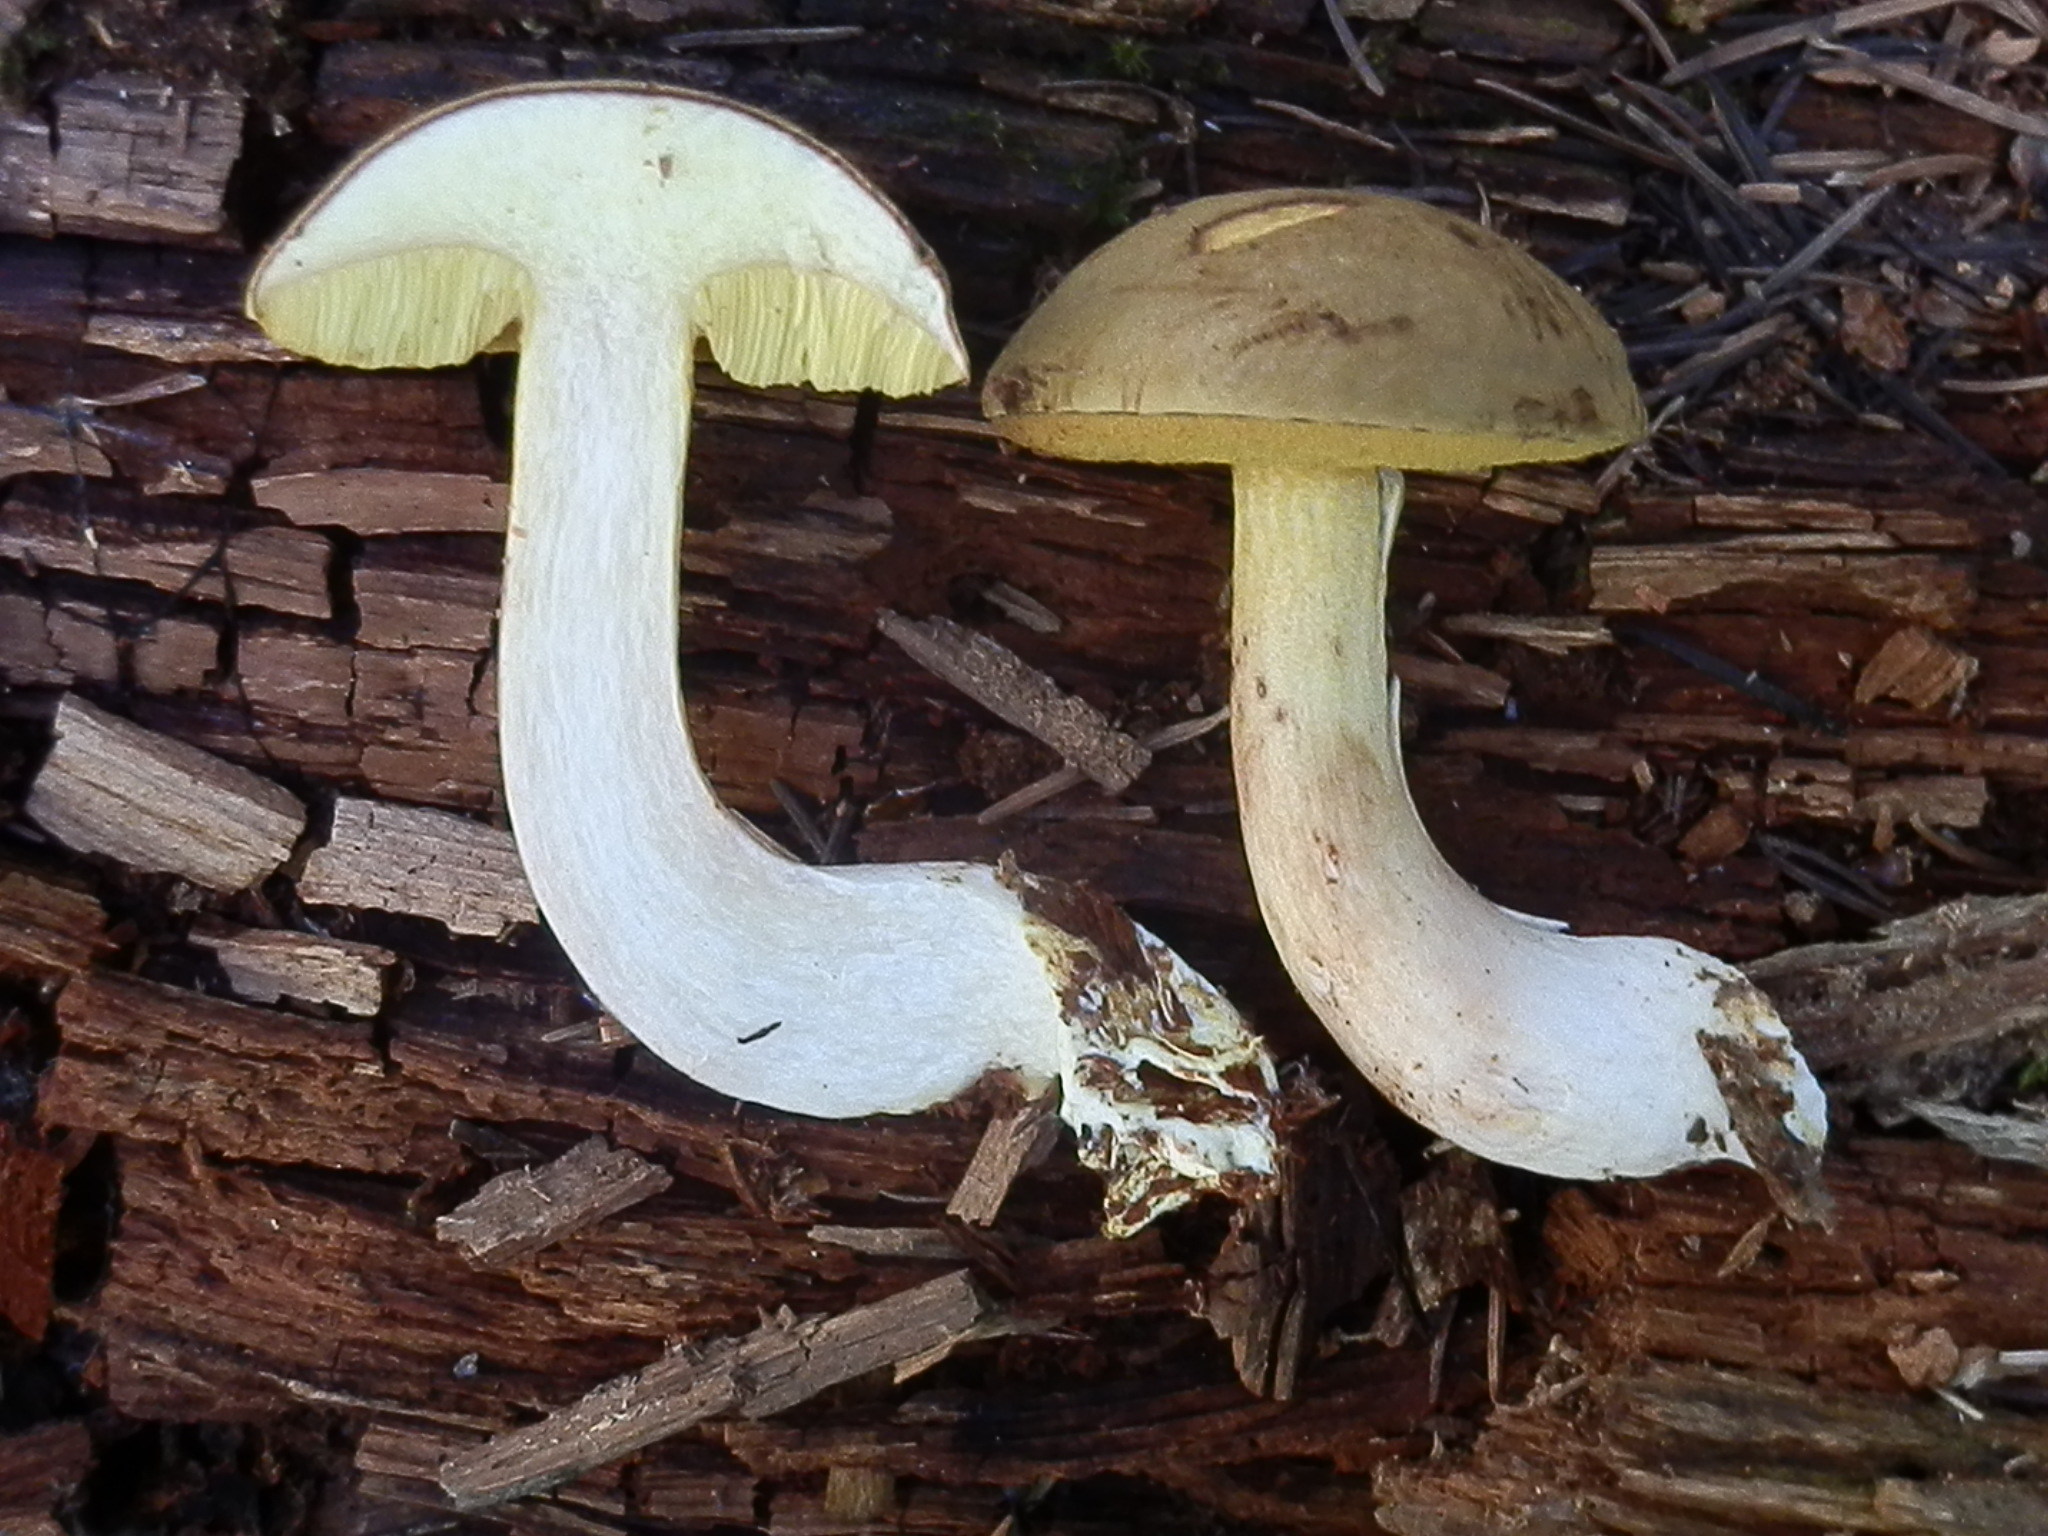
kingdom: Fungi
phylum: Basidiomycota
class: Agaricomycetes
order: Boletales
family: Boletaceae
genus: Xerocomus
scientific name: Xerocomus ferrugineus
